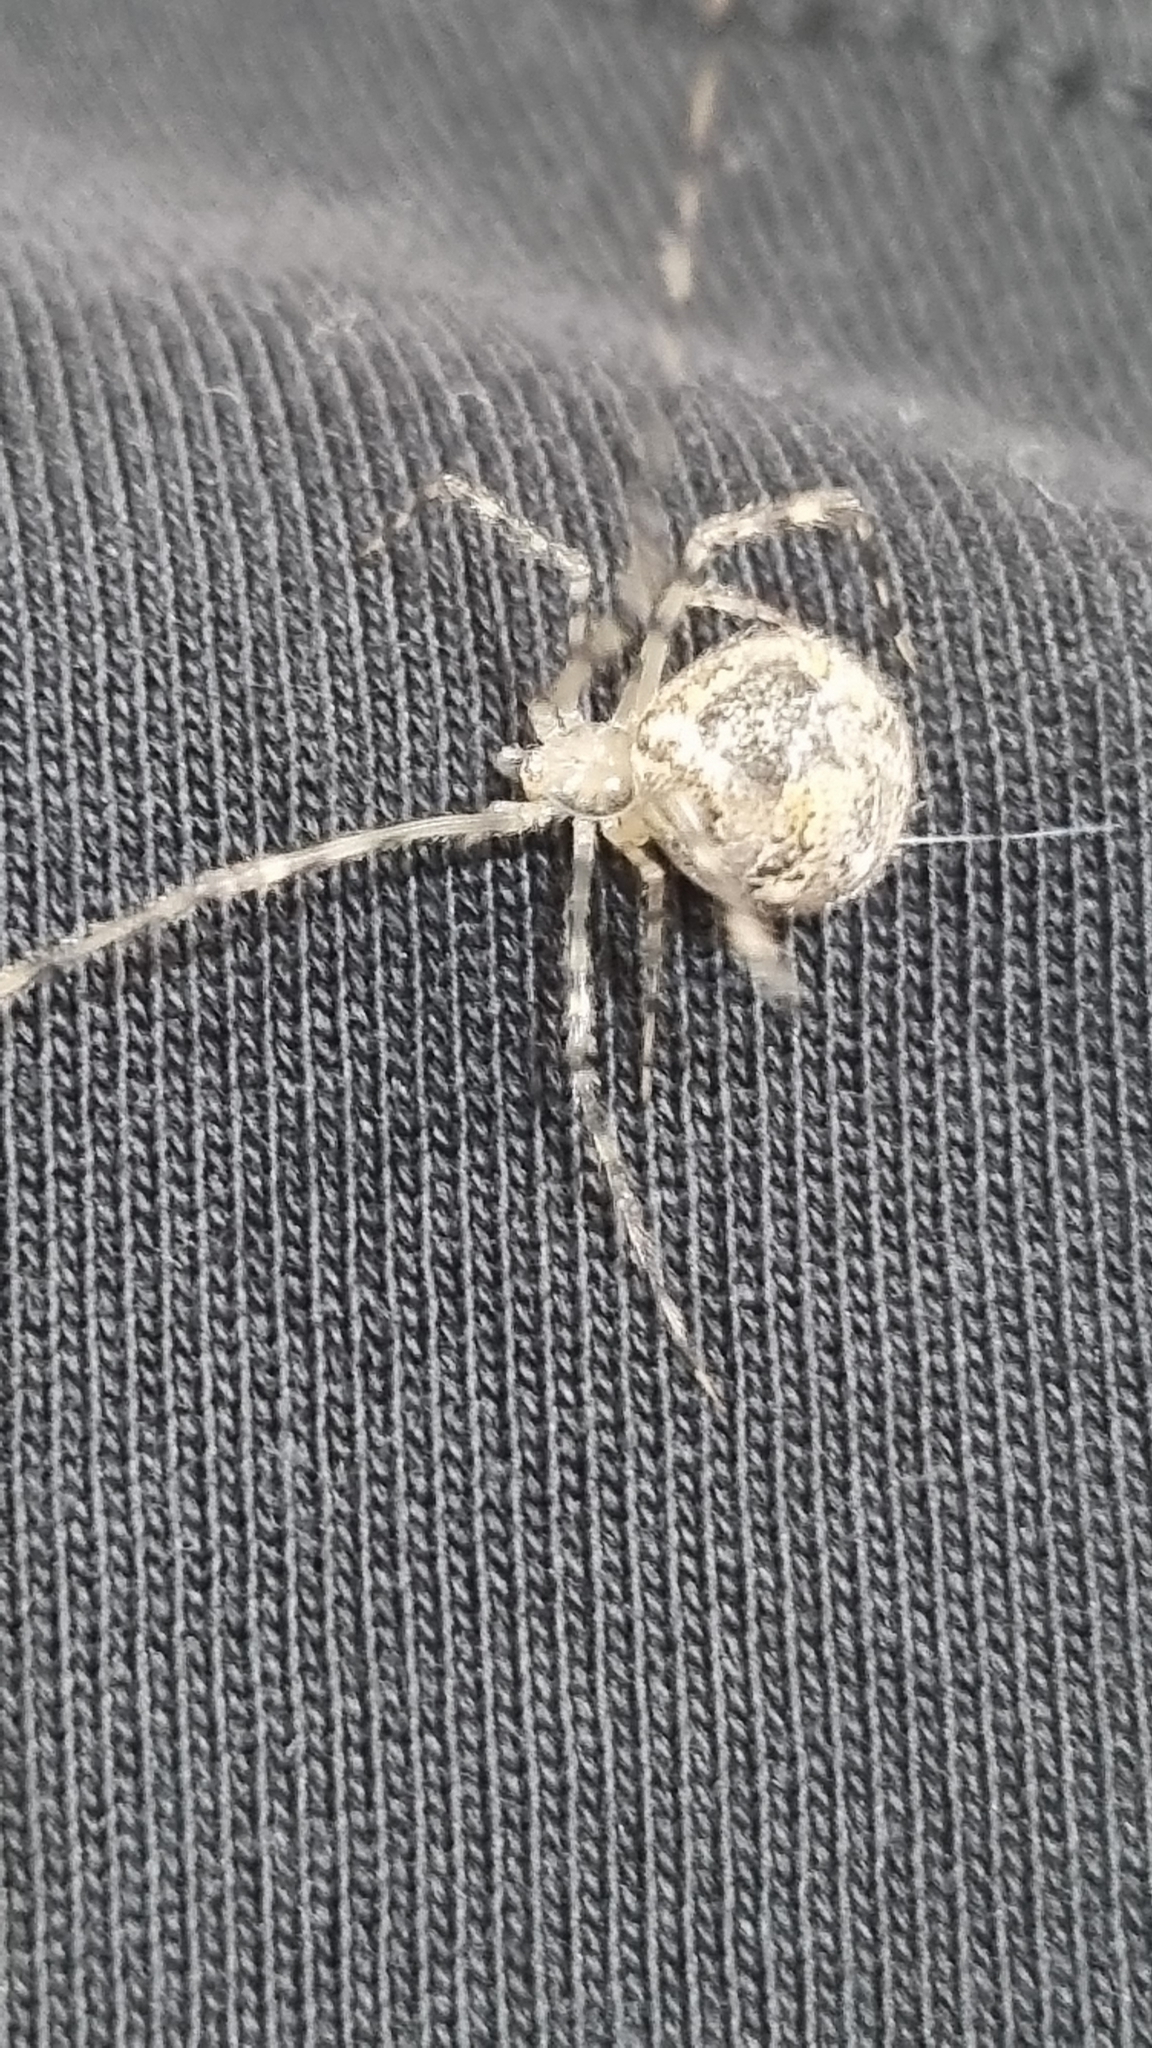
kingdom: Animalia
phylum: Arthropoda
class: Arachnida
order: Araneae
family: Theridiidae
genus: Cryptachaea
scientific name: Cryptachaea gigantipes
